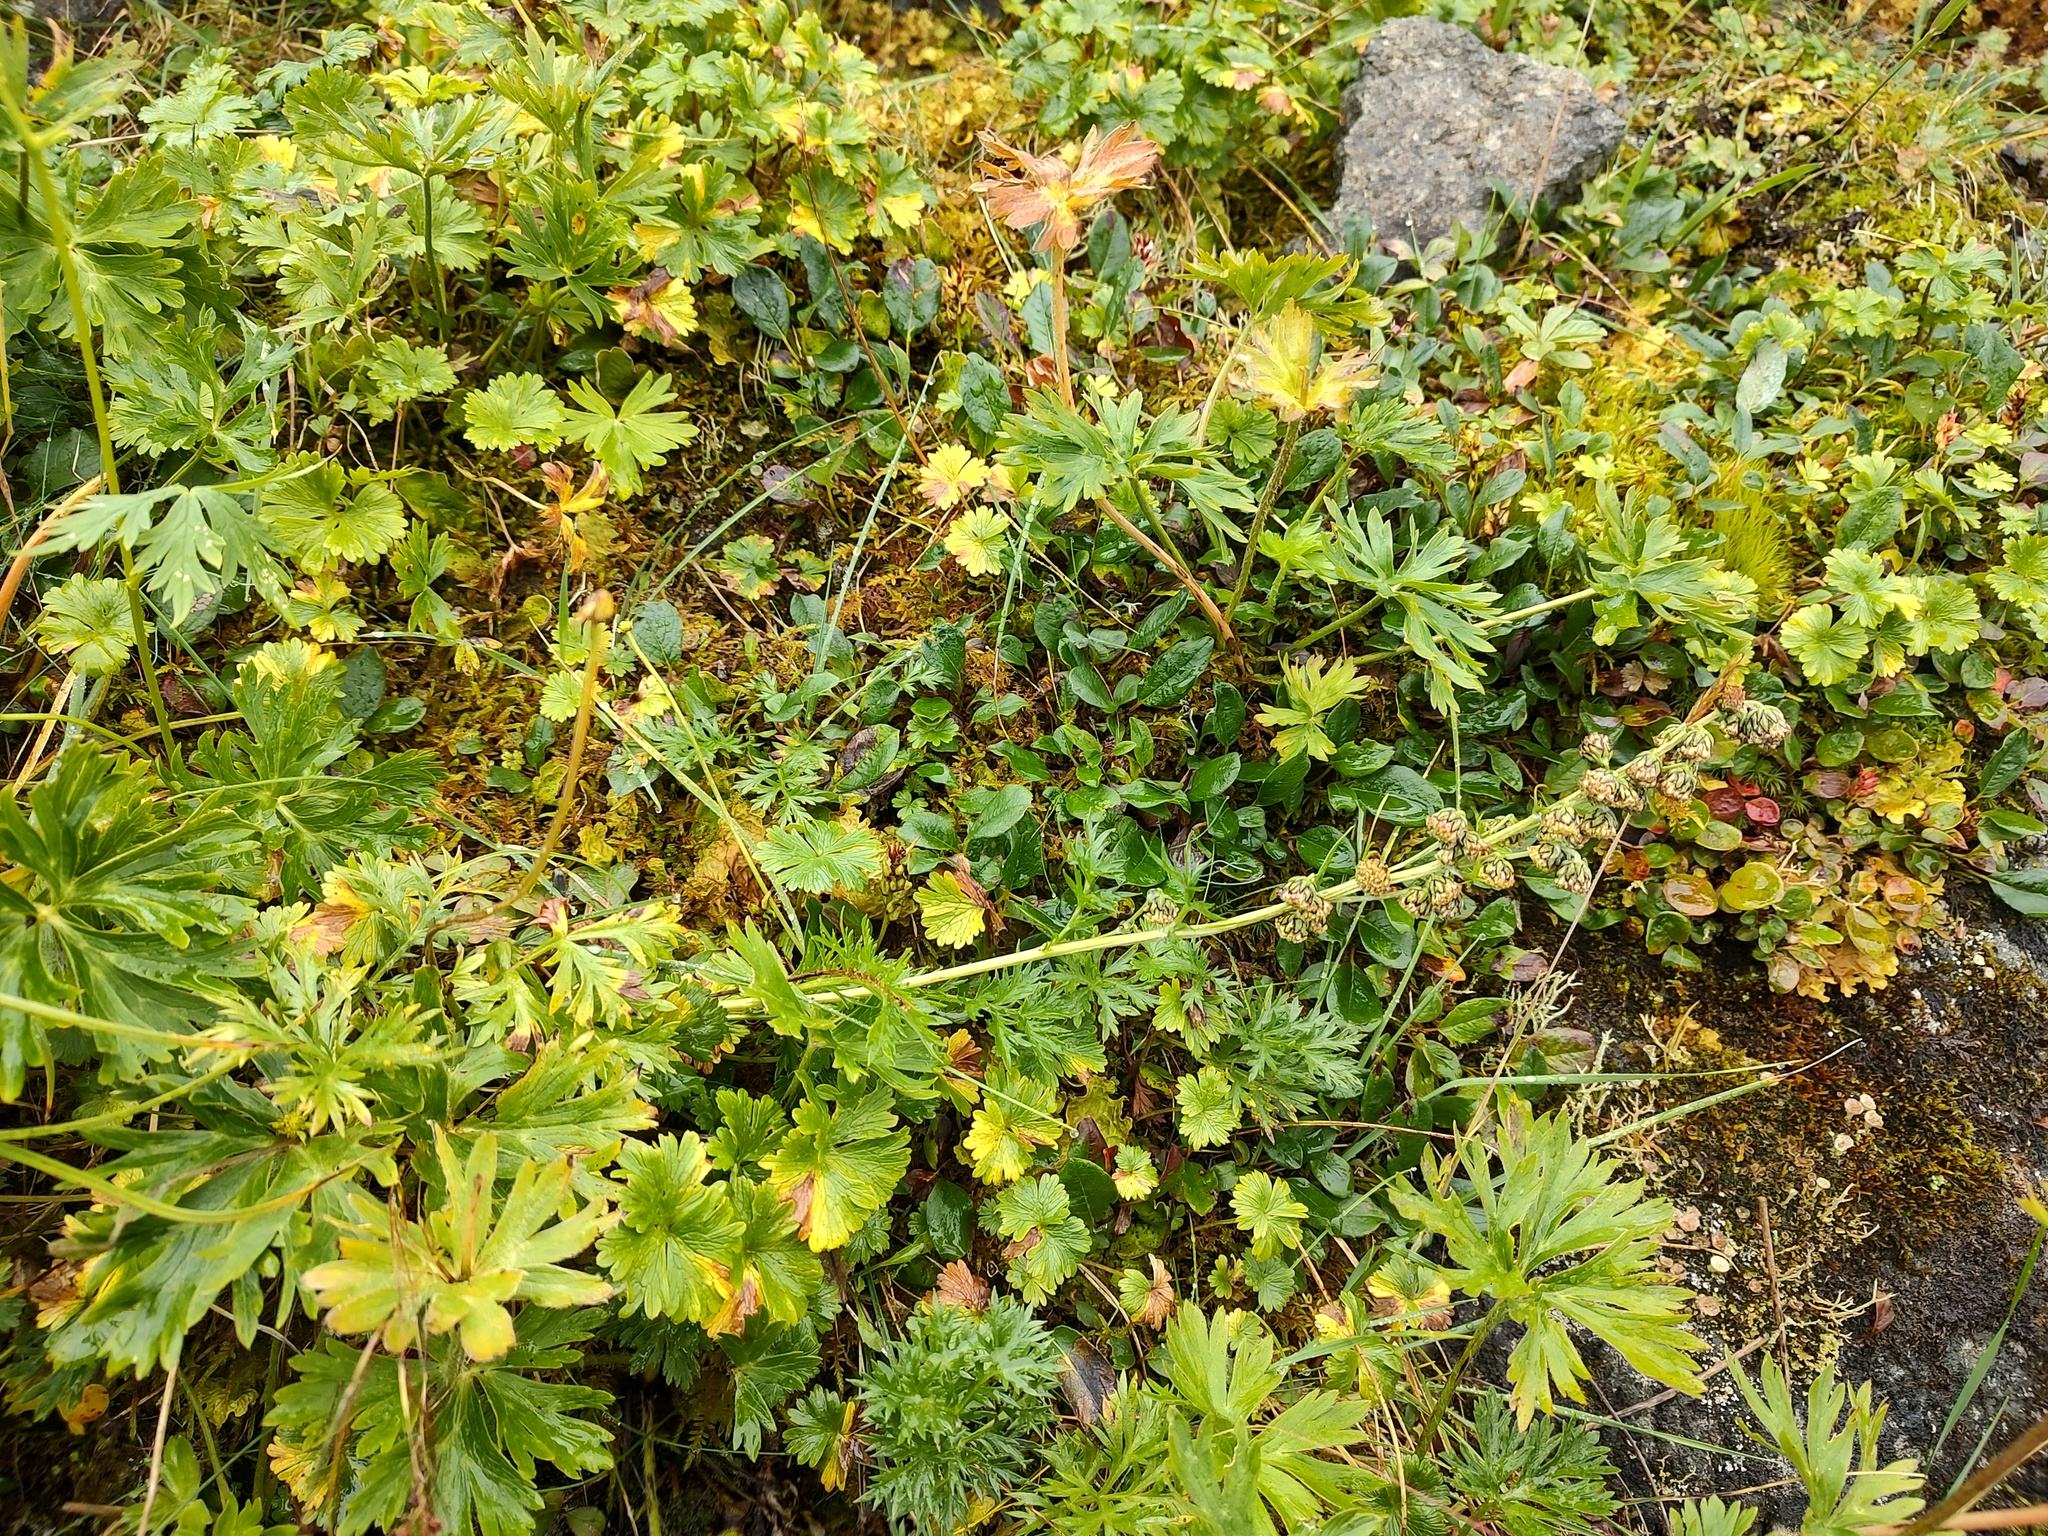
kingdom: Plantae
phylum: Tracheophyta
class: Magnoliopsida
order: Asterales
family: Asteraceae
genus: Artemisia
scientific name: Artemisia norvegica
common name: Norwegian mugwort
